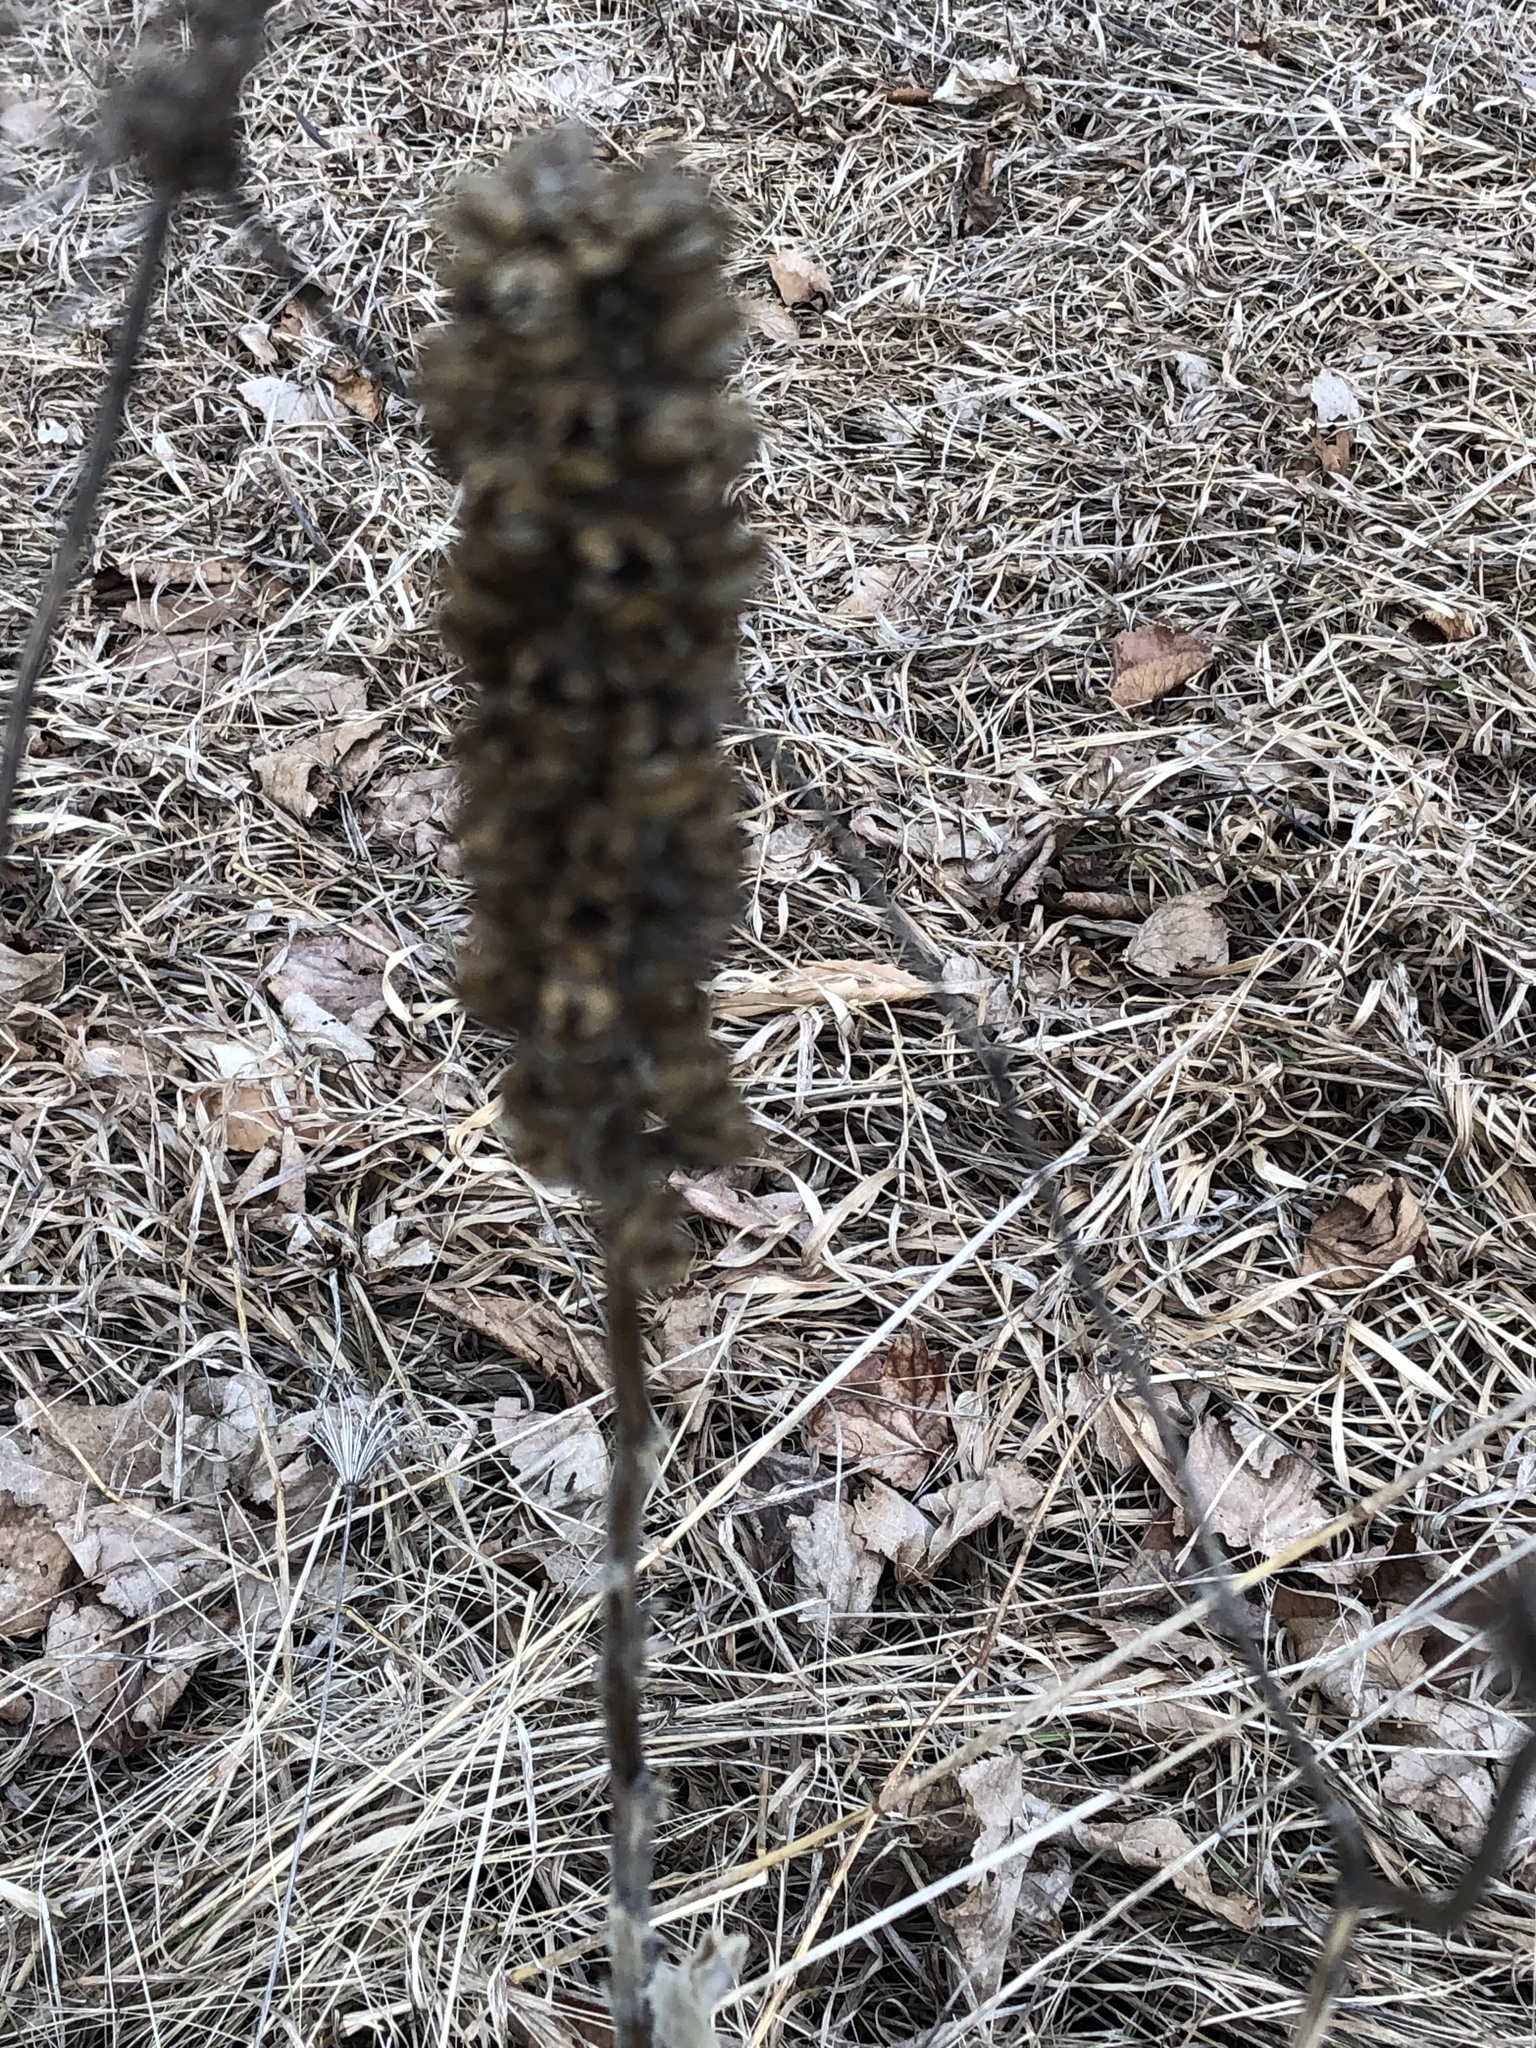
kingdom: Plantae
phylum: Tracheophyta
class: Magnoliopsida
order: Lamiales
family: Scrophulariaceae
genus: Verbascum
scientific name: Verbascum thapsus
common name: Common mullein
